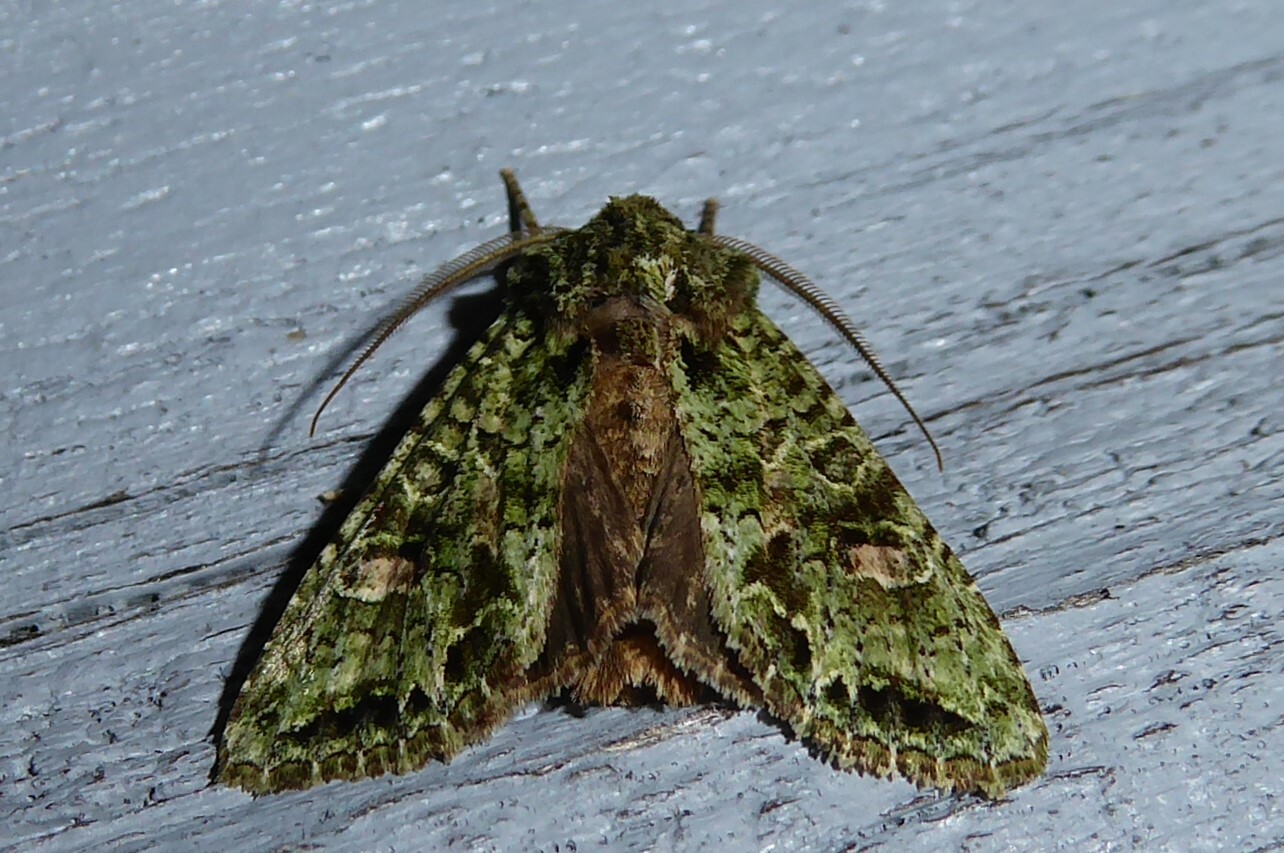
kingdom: Animalia
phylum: Arthropoda
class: Insecta
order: Lepidoptera
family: Noctuidae
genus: Ichneutica
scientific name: Ichneutica
